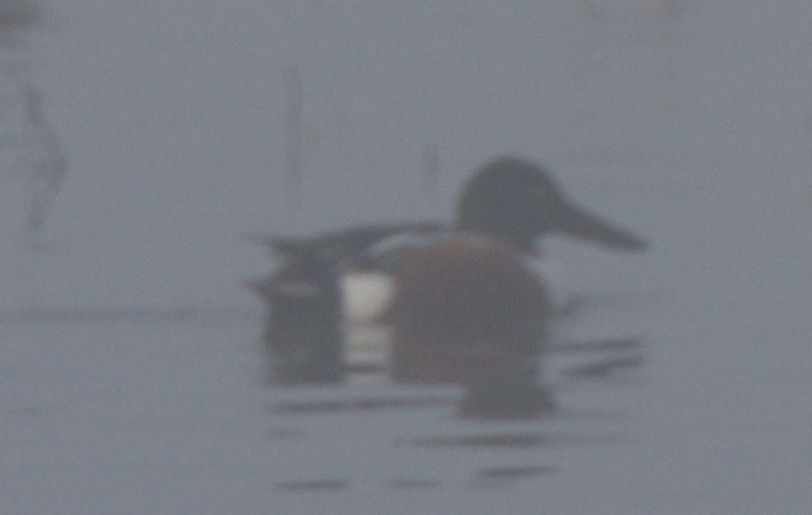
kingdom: Animalia
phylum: Chordata
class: Aves
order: Anseriformes
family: Anatidae
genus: Spatula
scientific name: Spatula clypeata
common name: Northern shoveler
